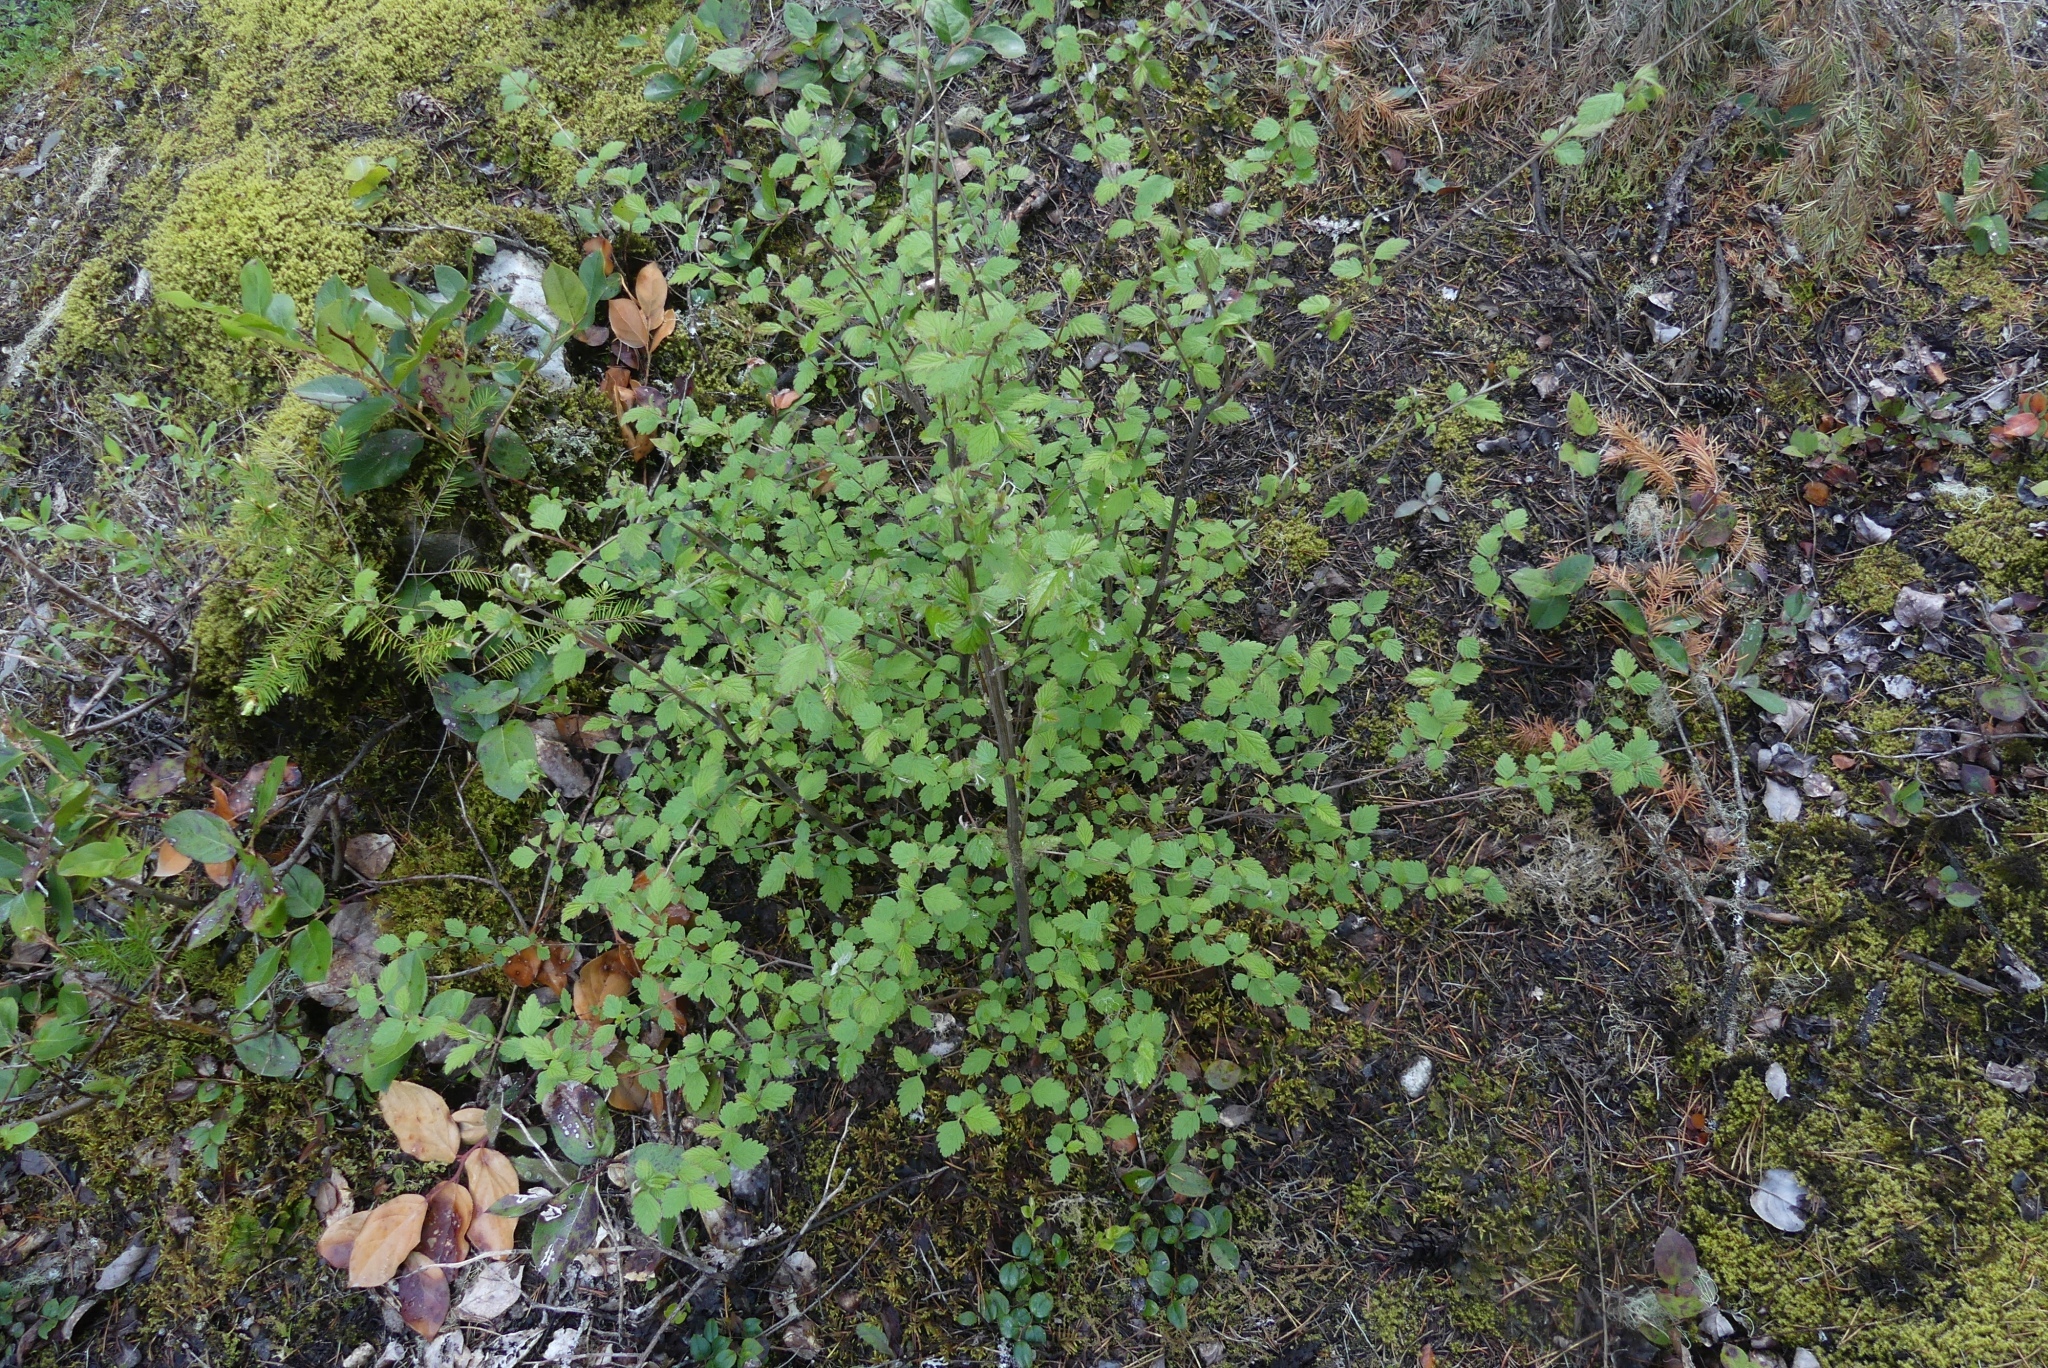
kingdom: Plantae
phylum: Tracheophyta
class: Magnoliopsida
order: Rosales
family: Rosaceae
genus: Holodiscus
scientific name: Holodiscus discolor
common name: Oceanspray
